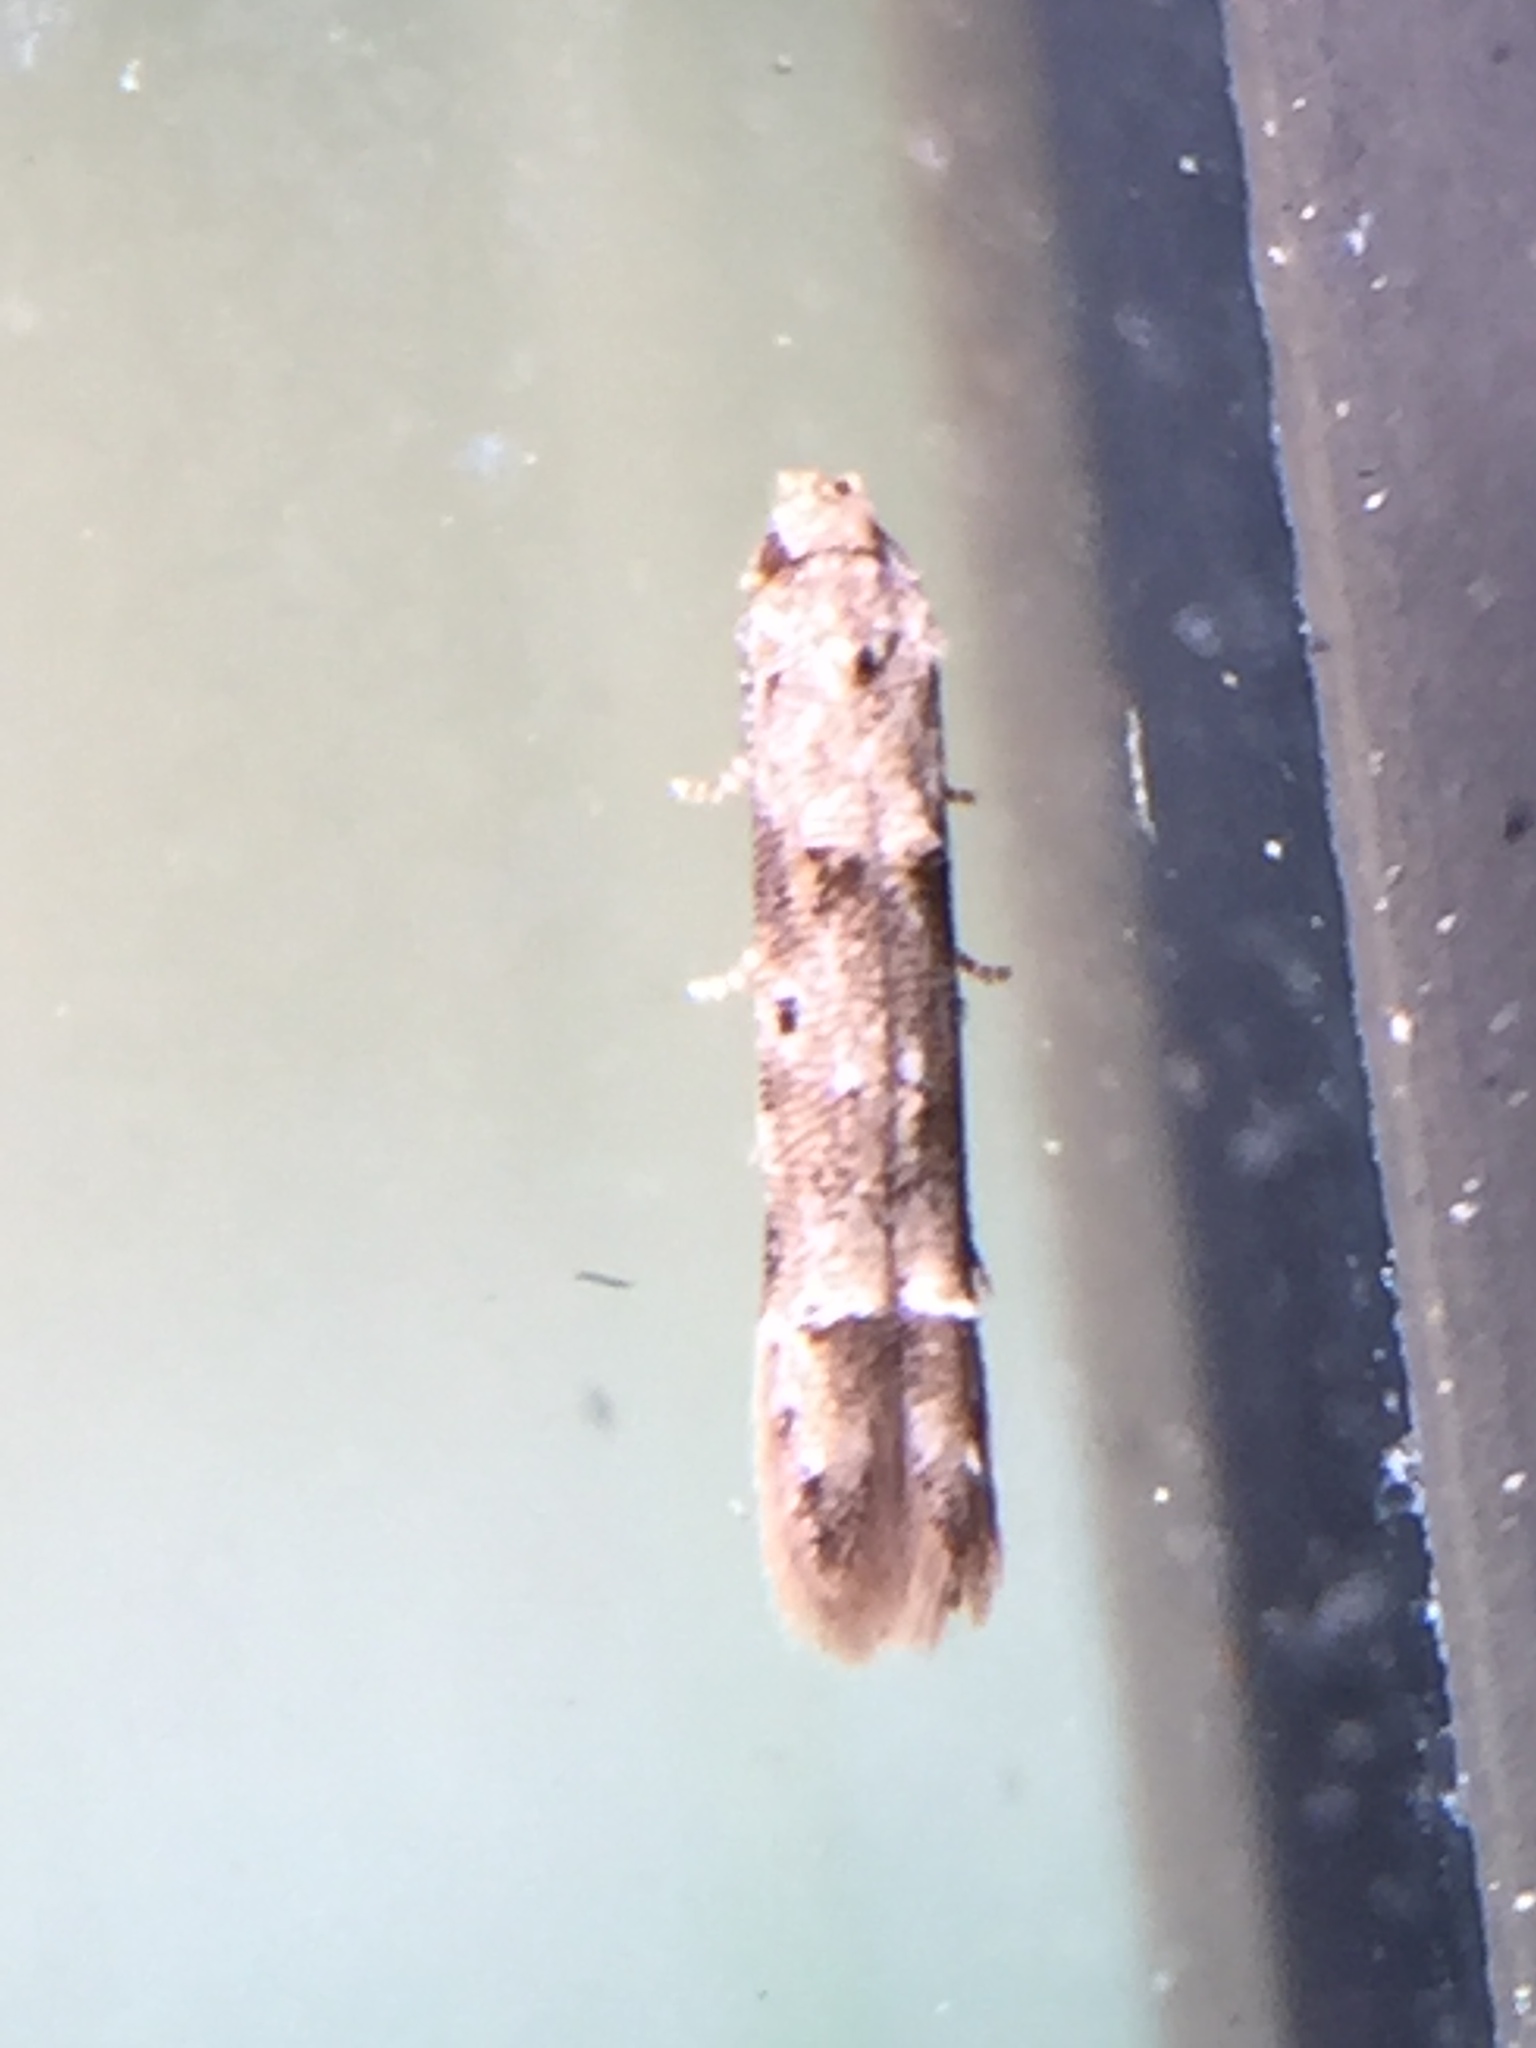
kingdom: Animalia
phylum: Arthropoda
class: Insecta
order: Lepidoptera
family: Elachistidae
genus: Microcolona
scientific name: Microcolona limodes
